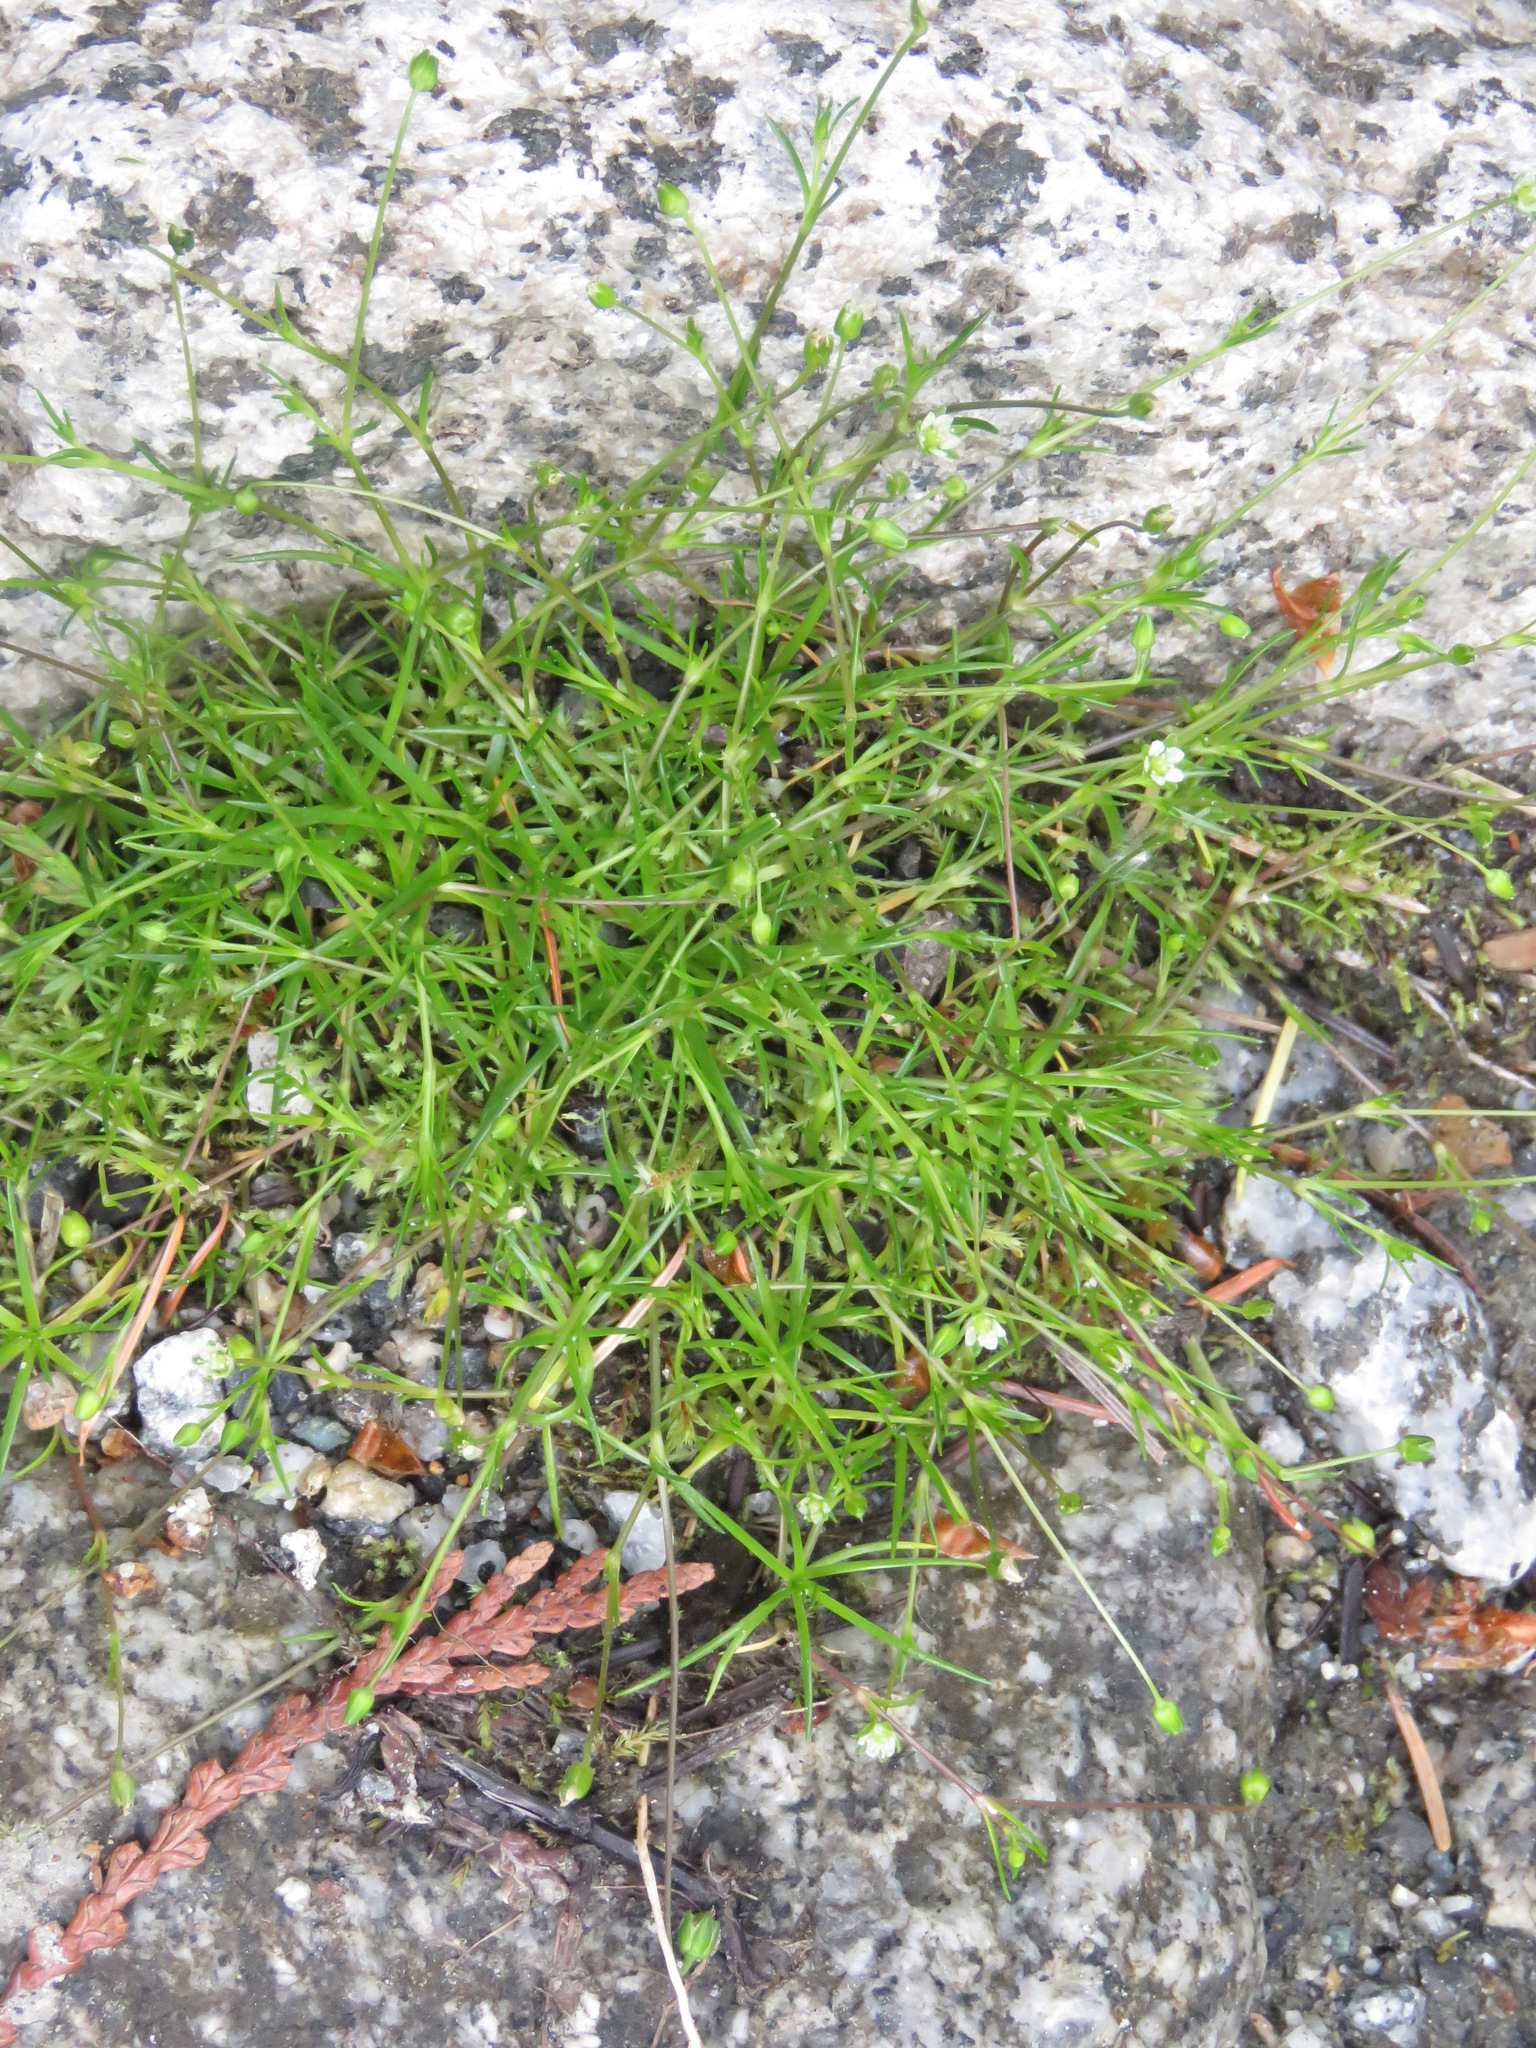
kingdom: Plantae
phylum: Tracheophyta
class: Magnoliopsida
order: Caryophyllales
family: Caryophyllaceae
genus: Sagina
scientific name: Sagina saginoides
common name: Alpine pearlwort
